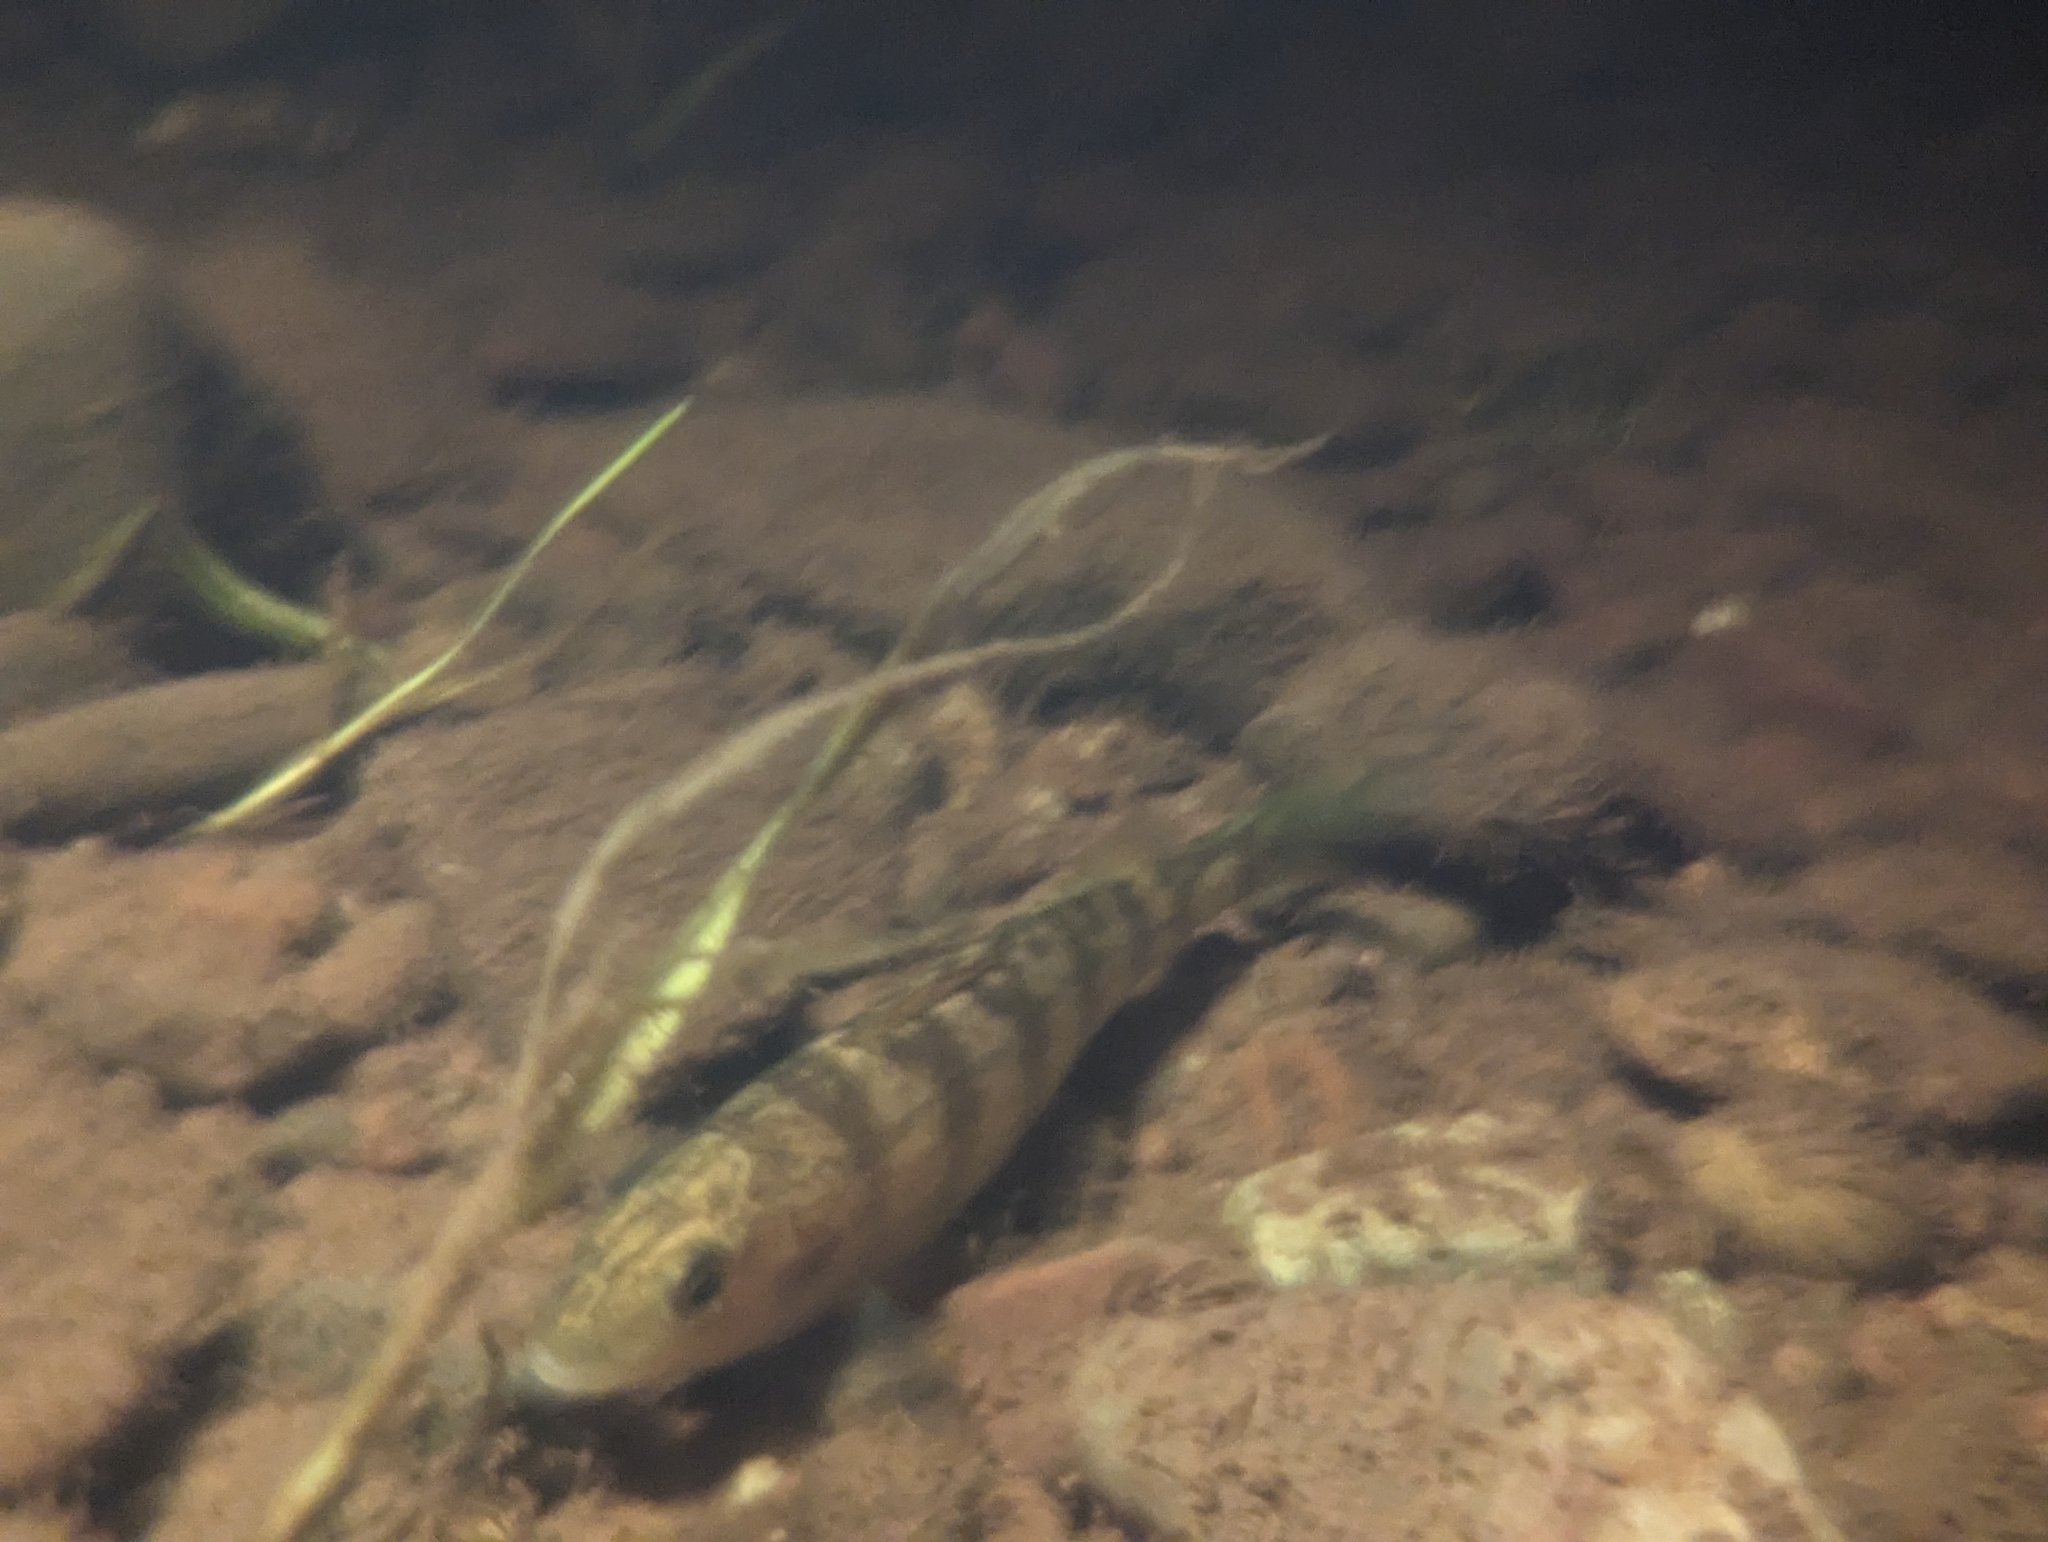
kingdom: Animalia
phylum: Chordata
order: Perciformes
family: Percidae
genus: Perca
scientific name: Perca flavescens
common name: Yellow perch
